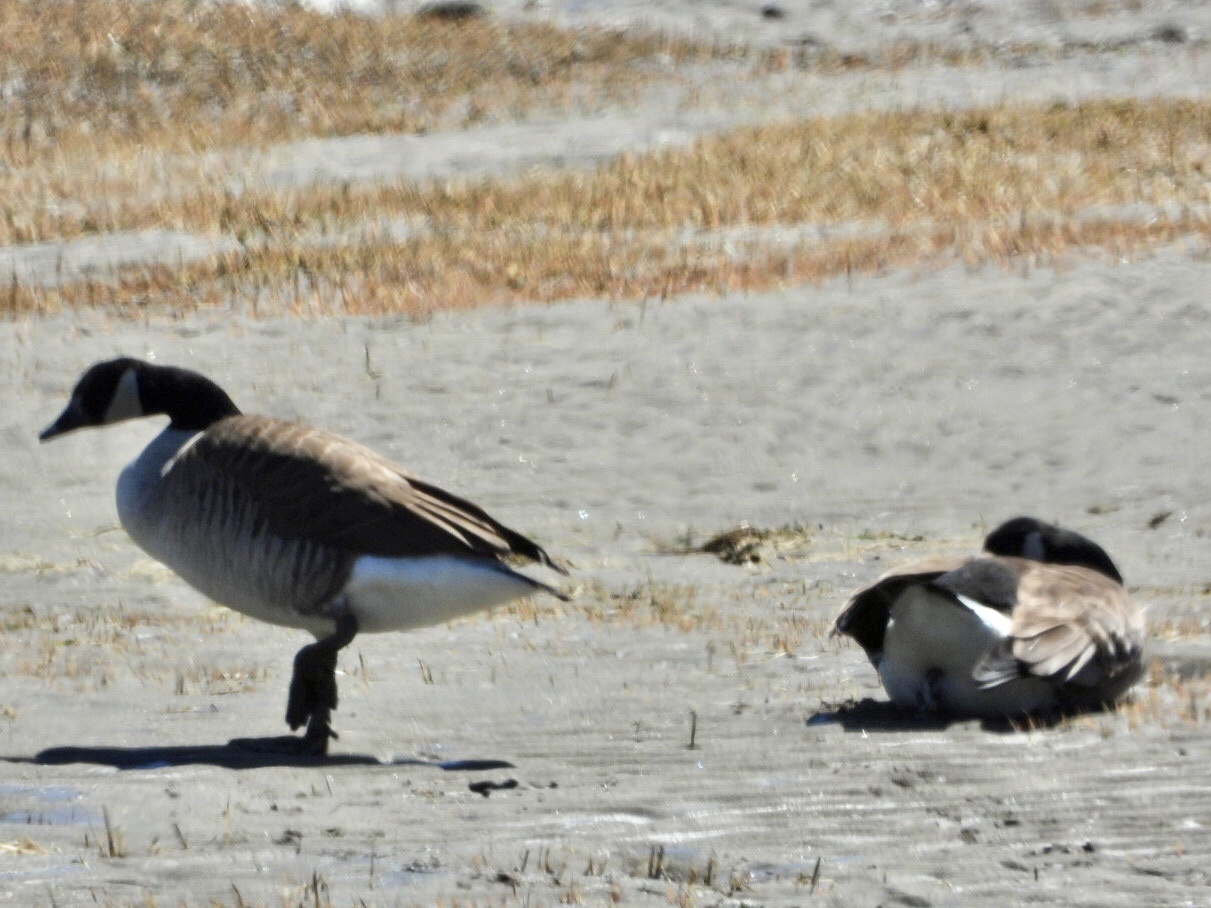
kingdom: Animalia
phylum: Chordata
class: Aves
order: Anseriformes
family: Anatidae
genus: Branta
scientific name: Branta canadensis
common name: Canada goose
